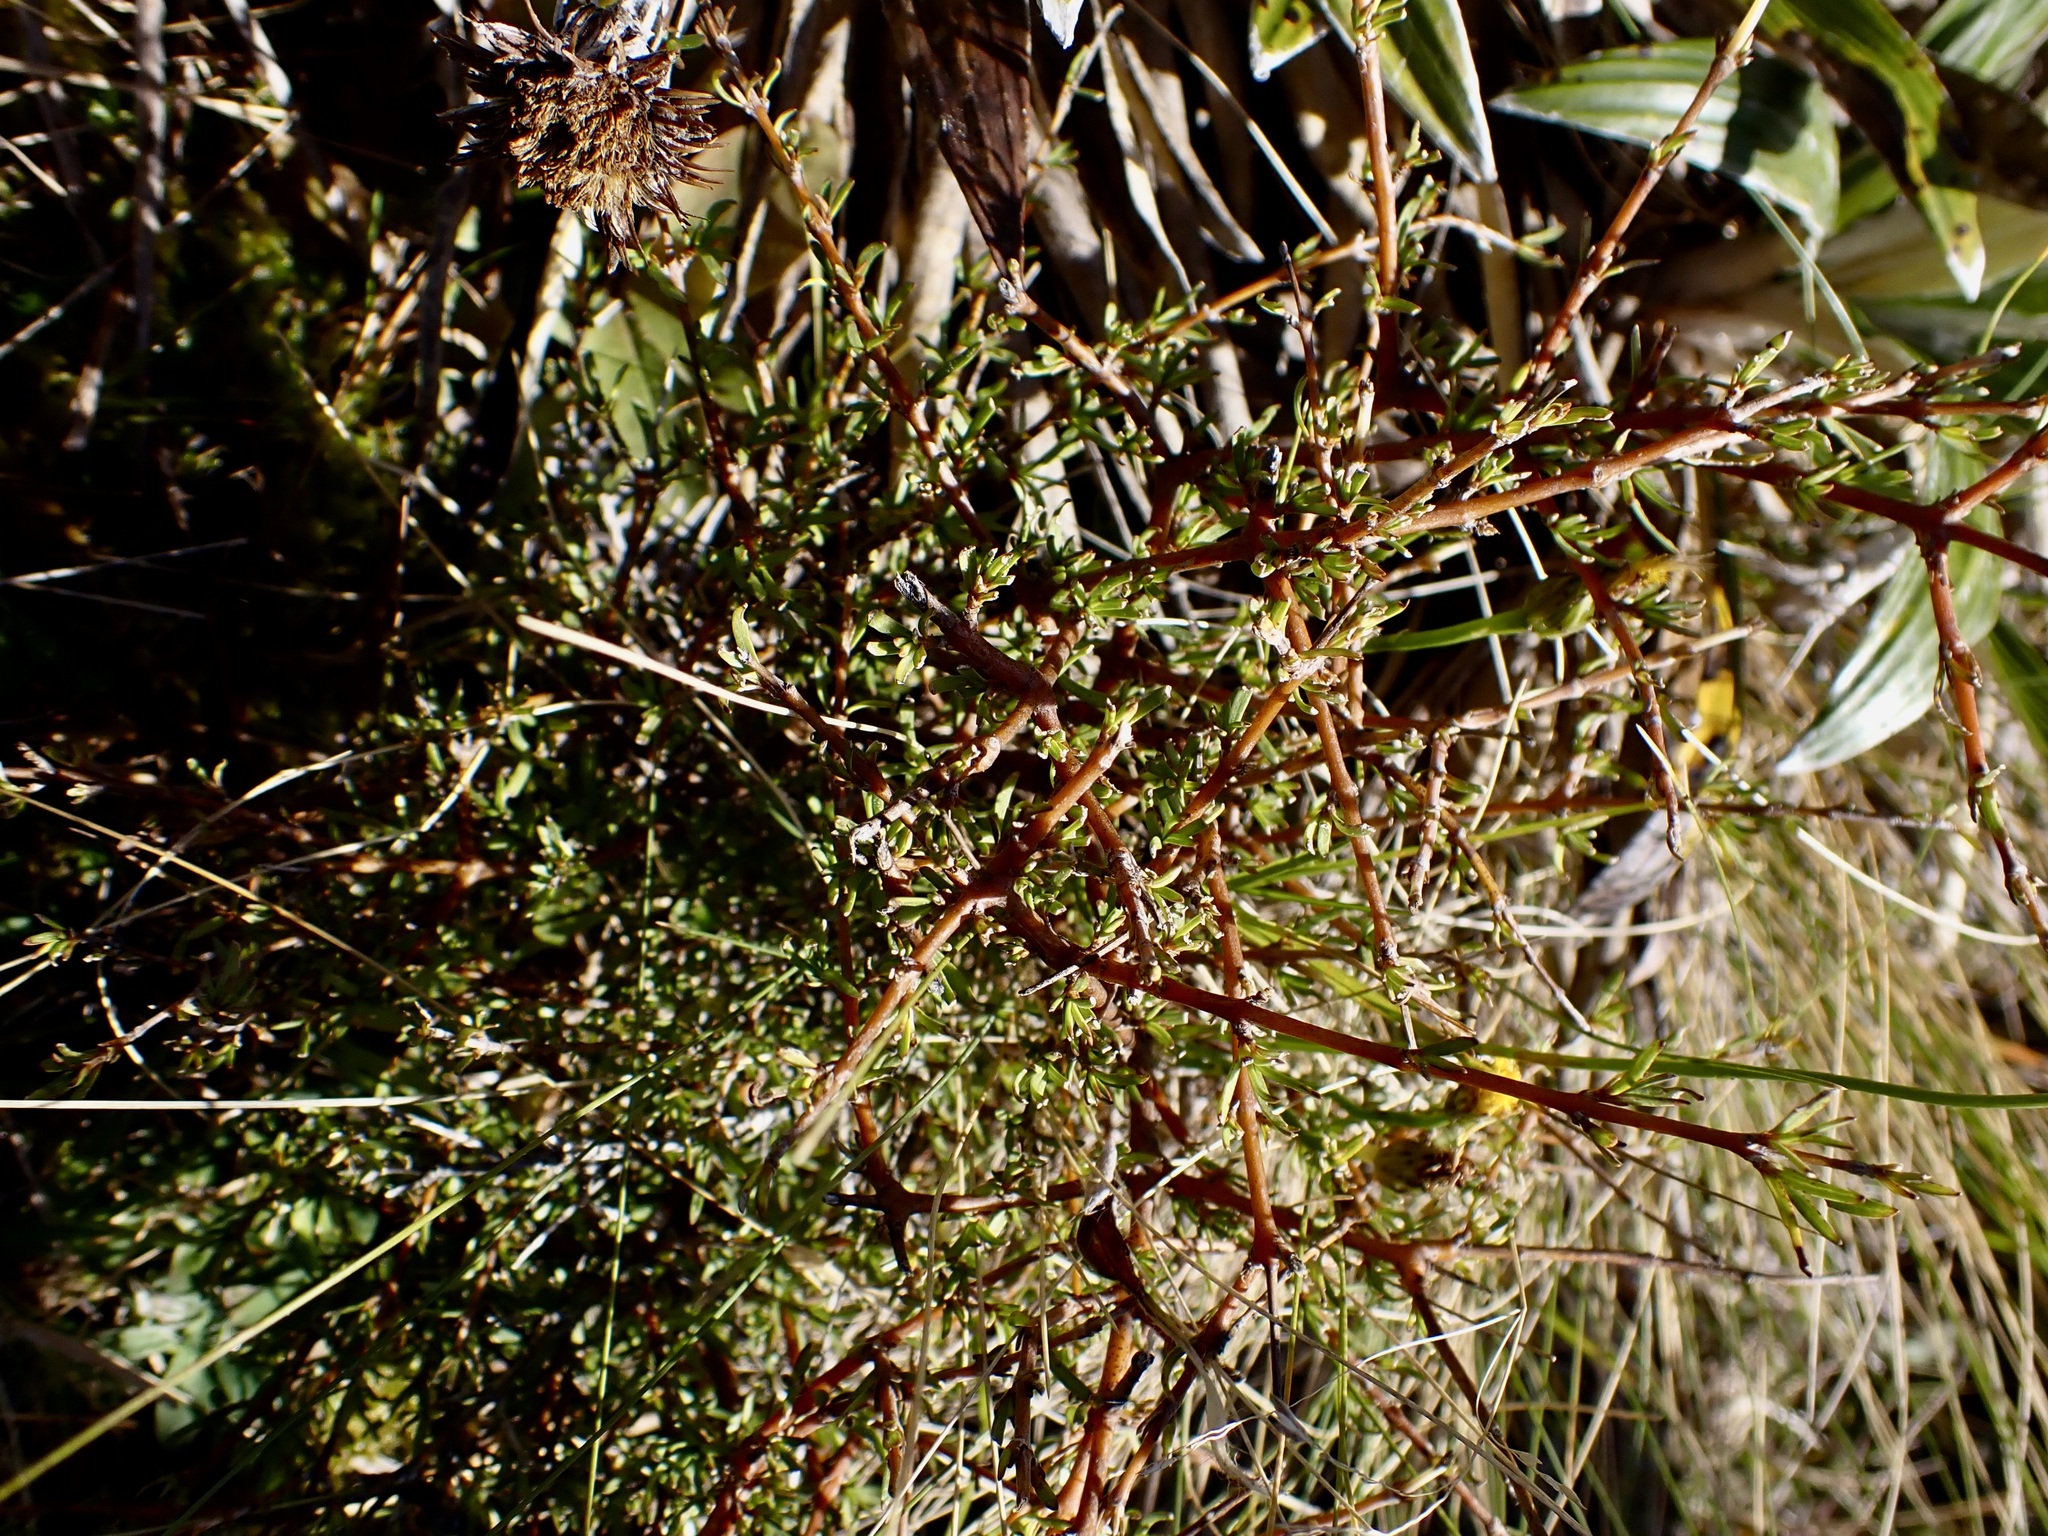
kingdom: Plantae
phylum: Tracheophyta
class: Magnoliopsida
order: Gentianales
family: Rubiaceae
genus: Coprosma
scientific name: Coprosma rugosa
